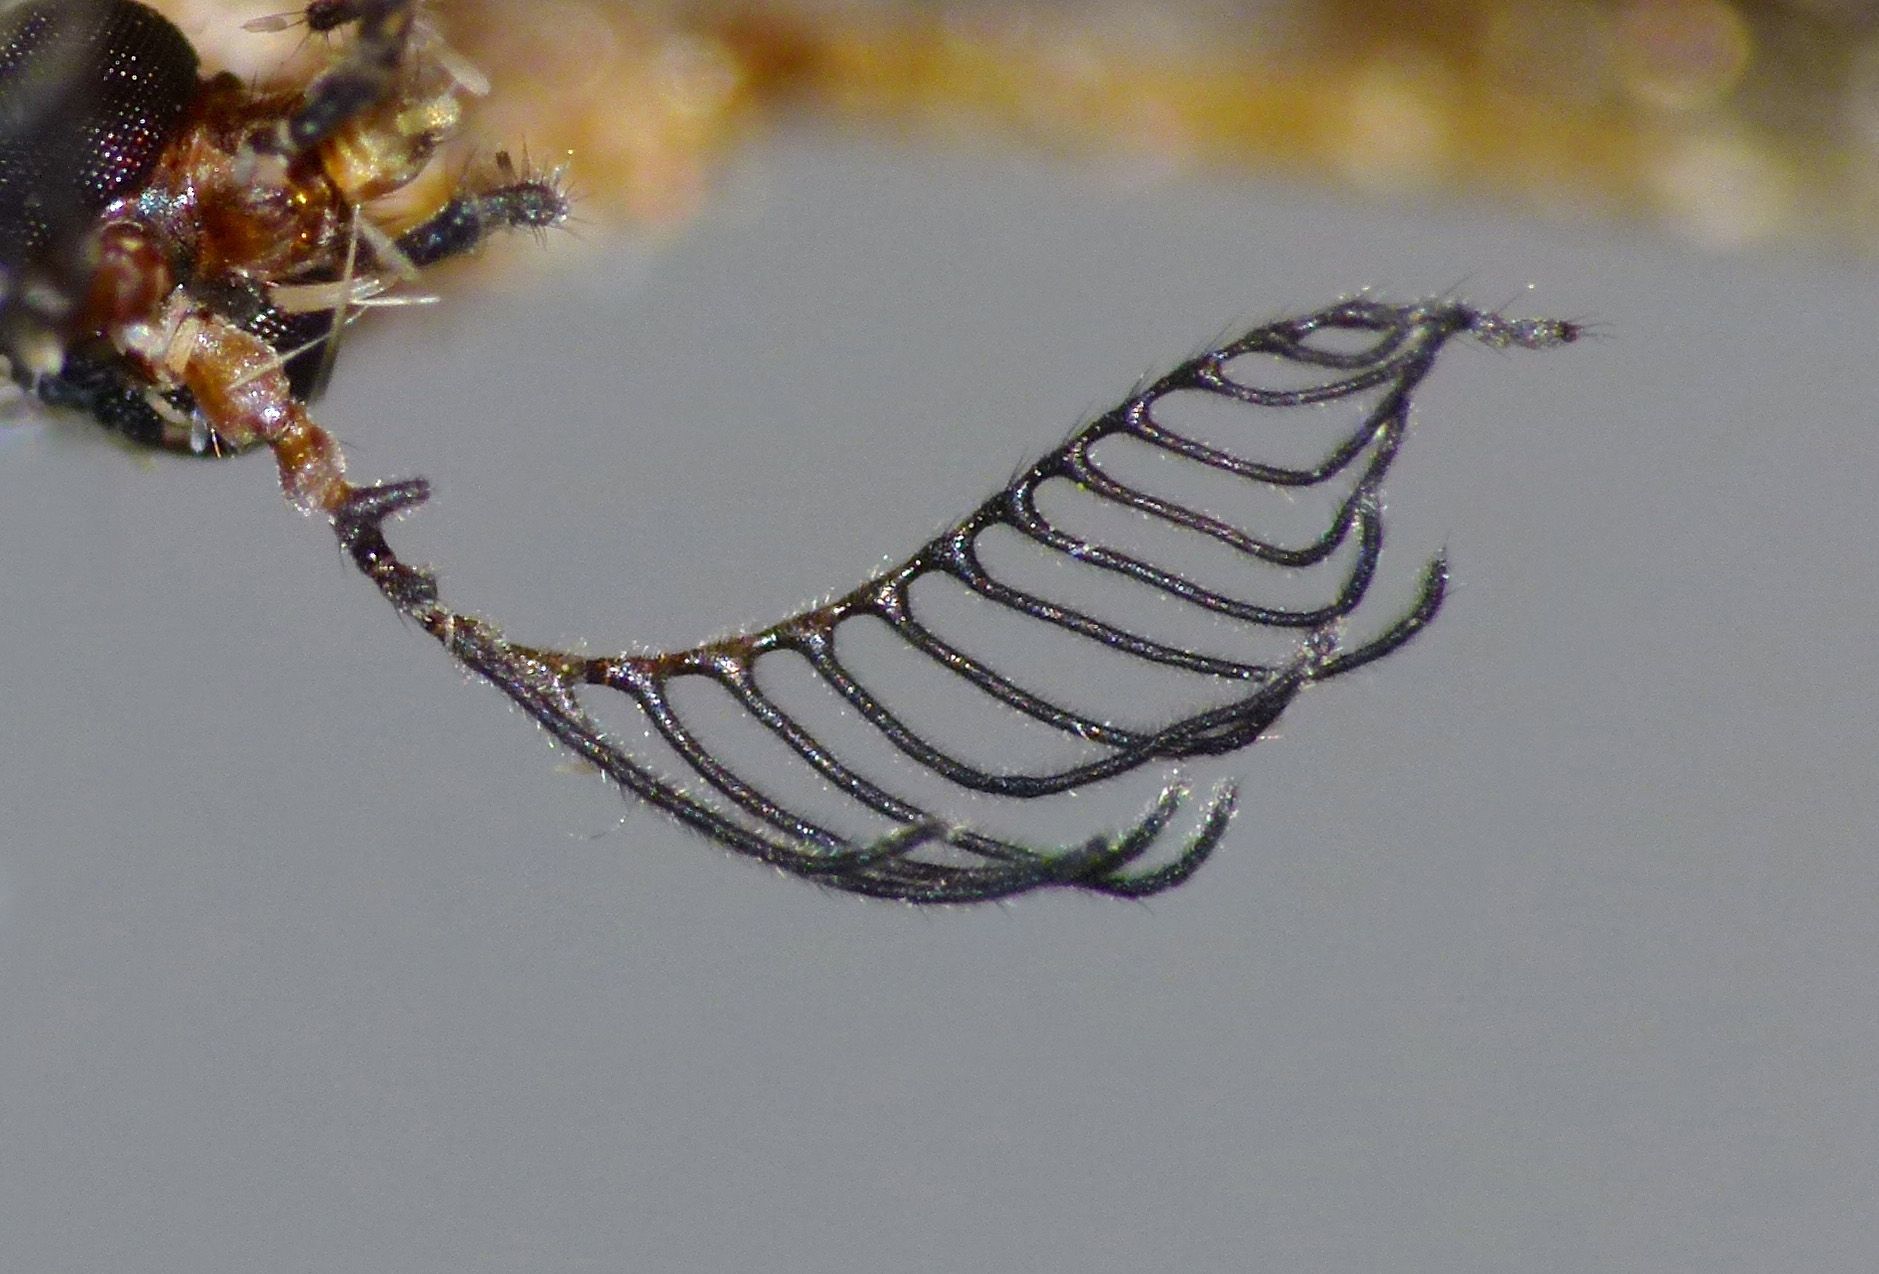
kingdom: Animalia
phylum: Arthropoda
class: Insecta
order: Diptera
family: Limoniidae
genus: Gynoplistia
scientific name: Gynoplistia cuprea
